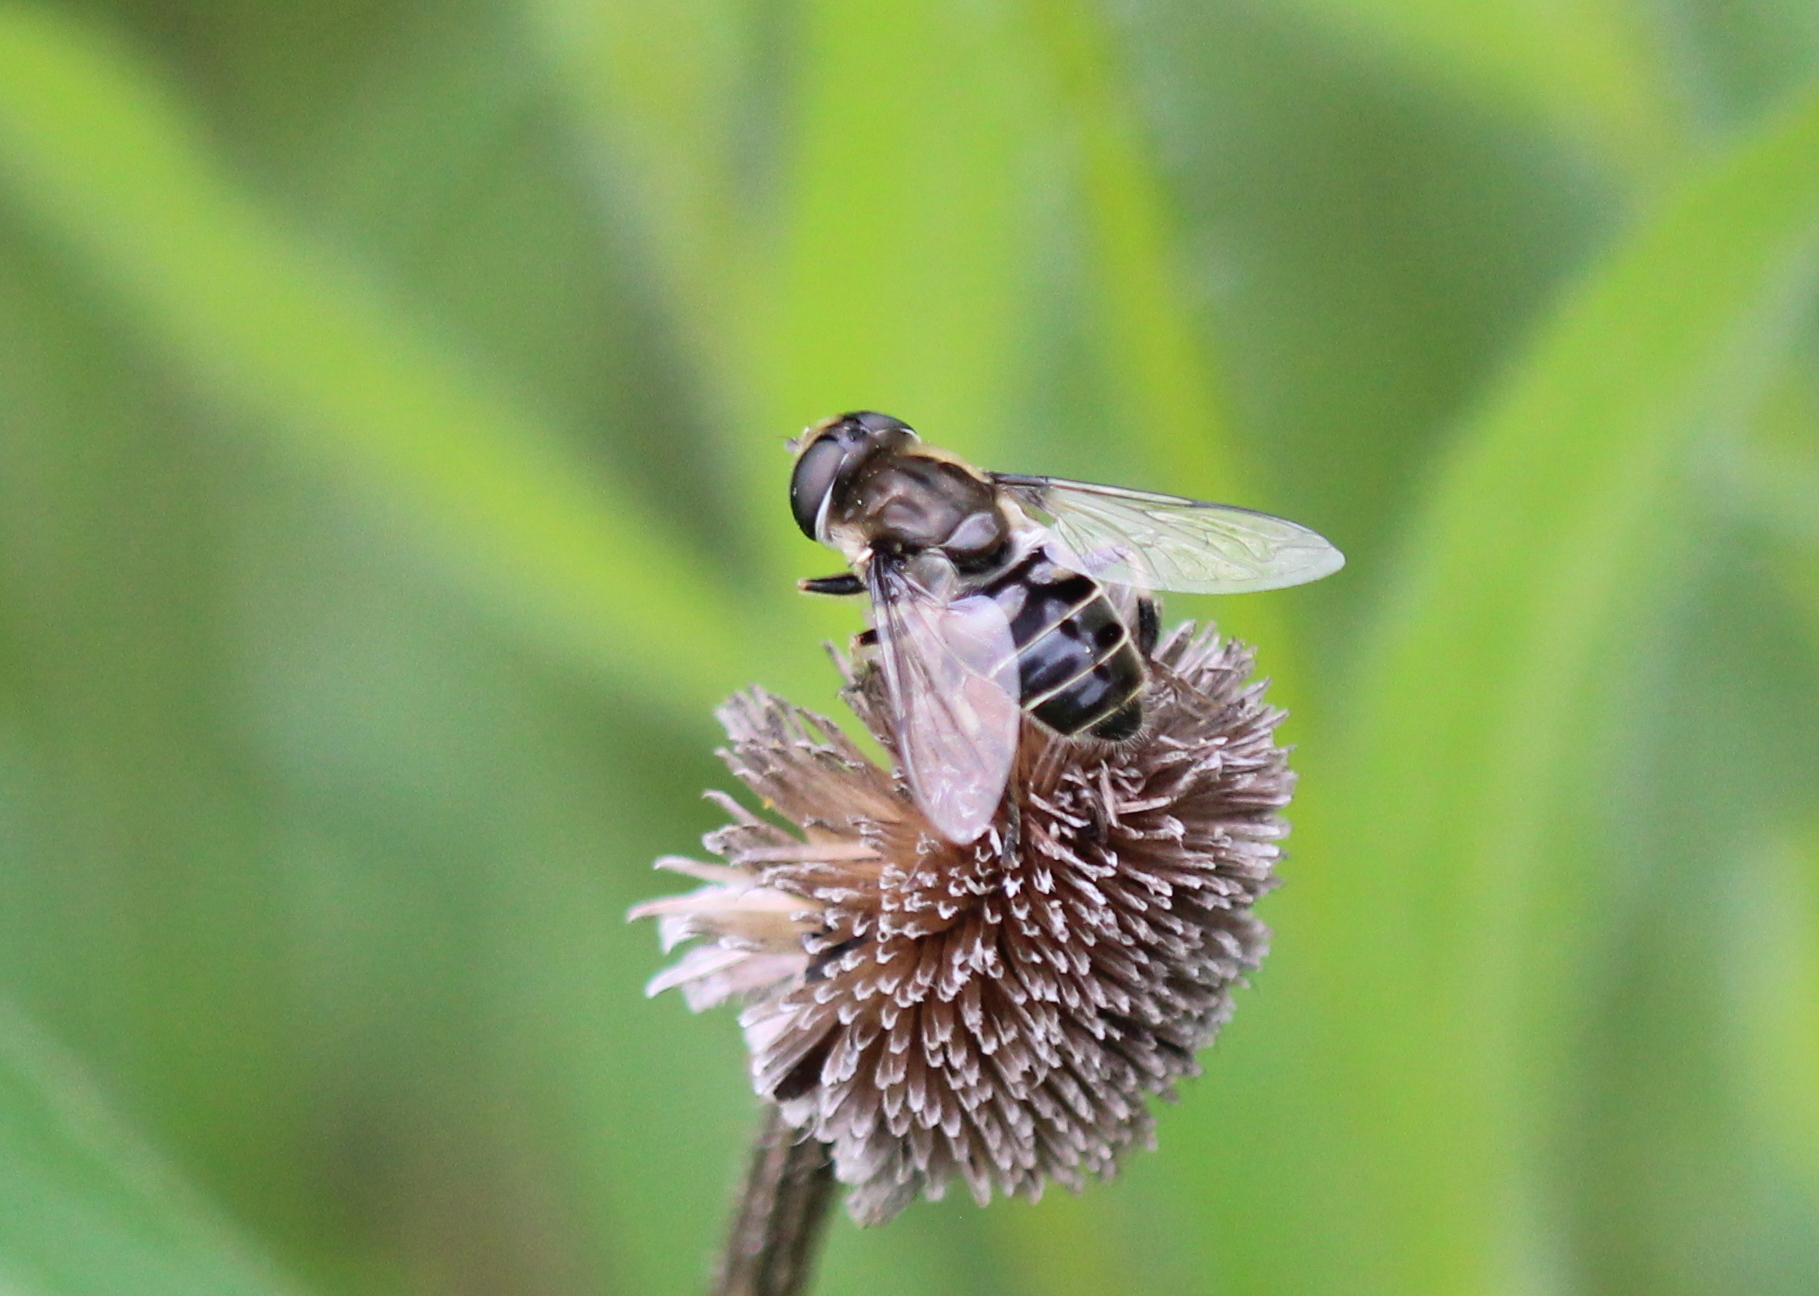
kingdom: Animalia
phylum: Arthropoda
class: Insecta
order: Diptera
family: Syrphidae
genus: Eristalis
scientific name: Eristalis dimidiata
